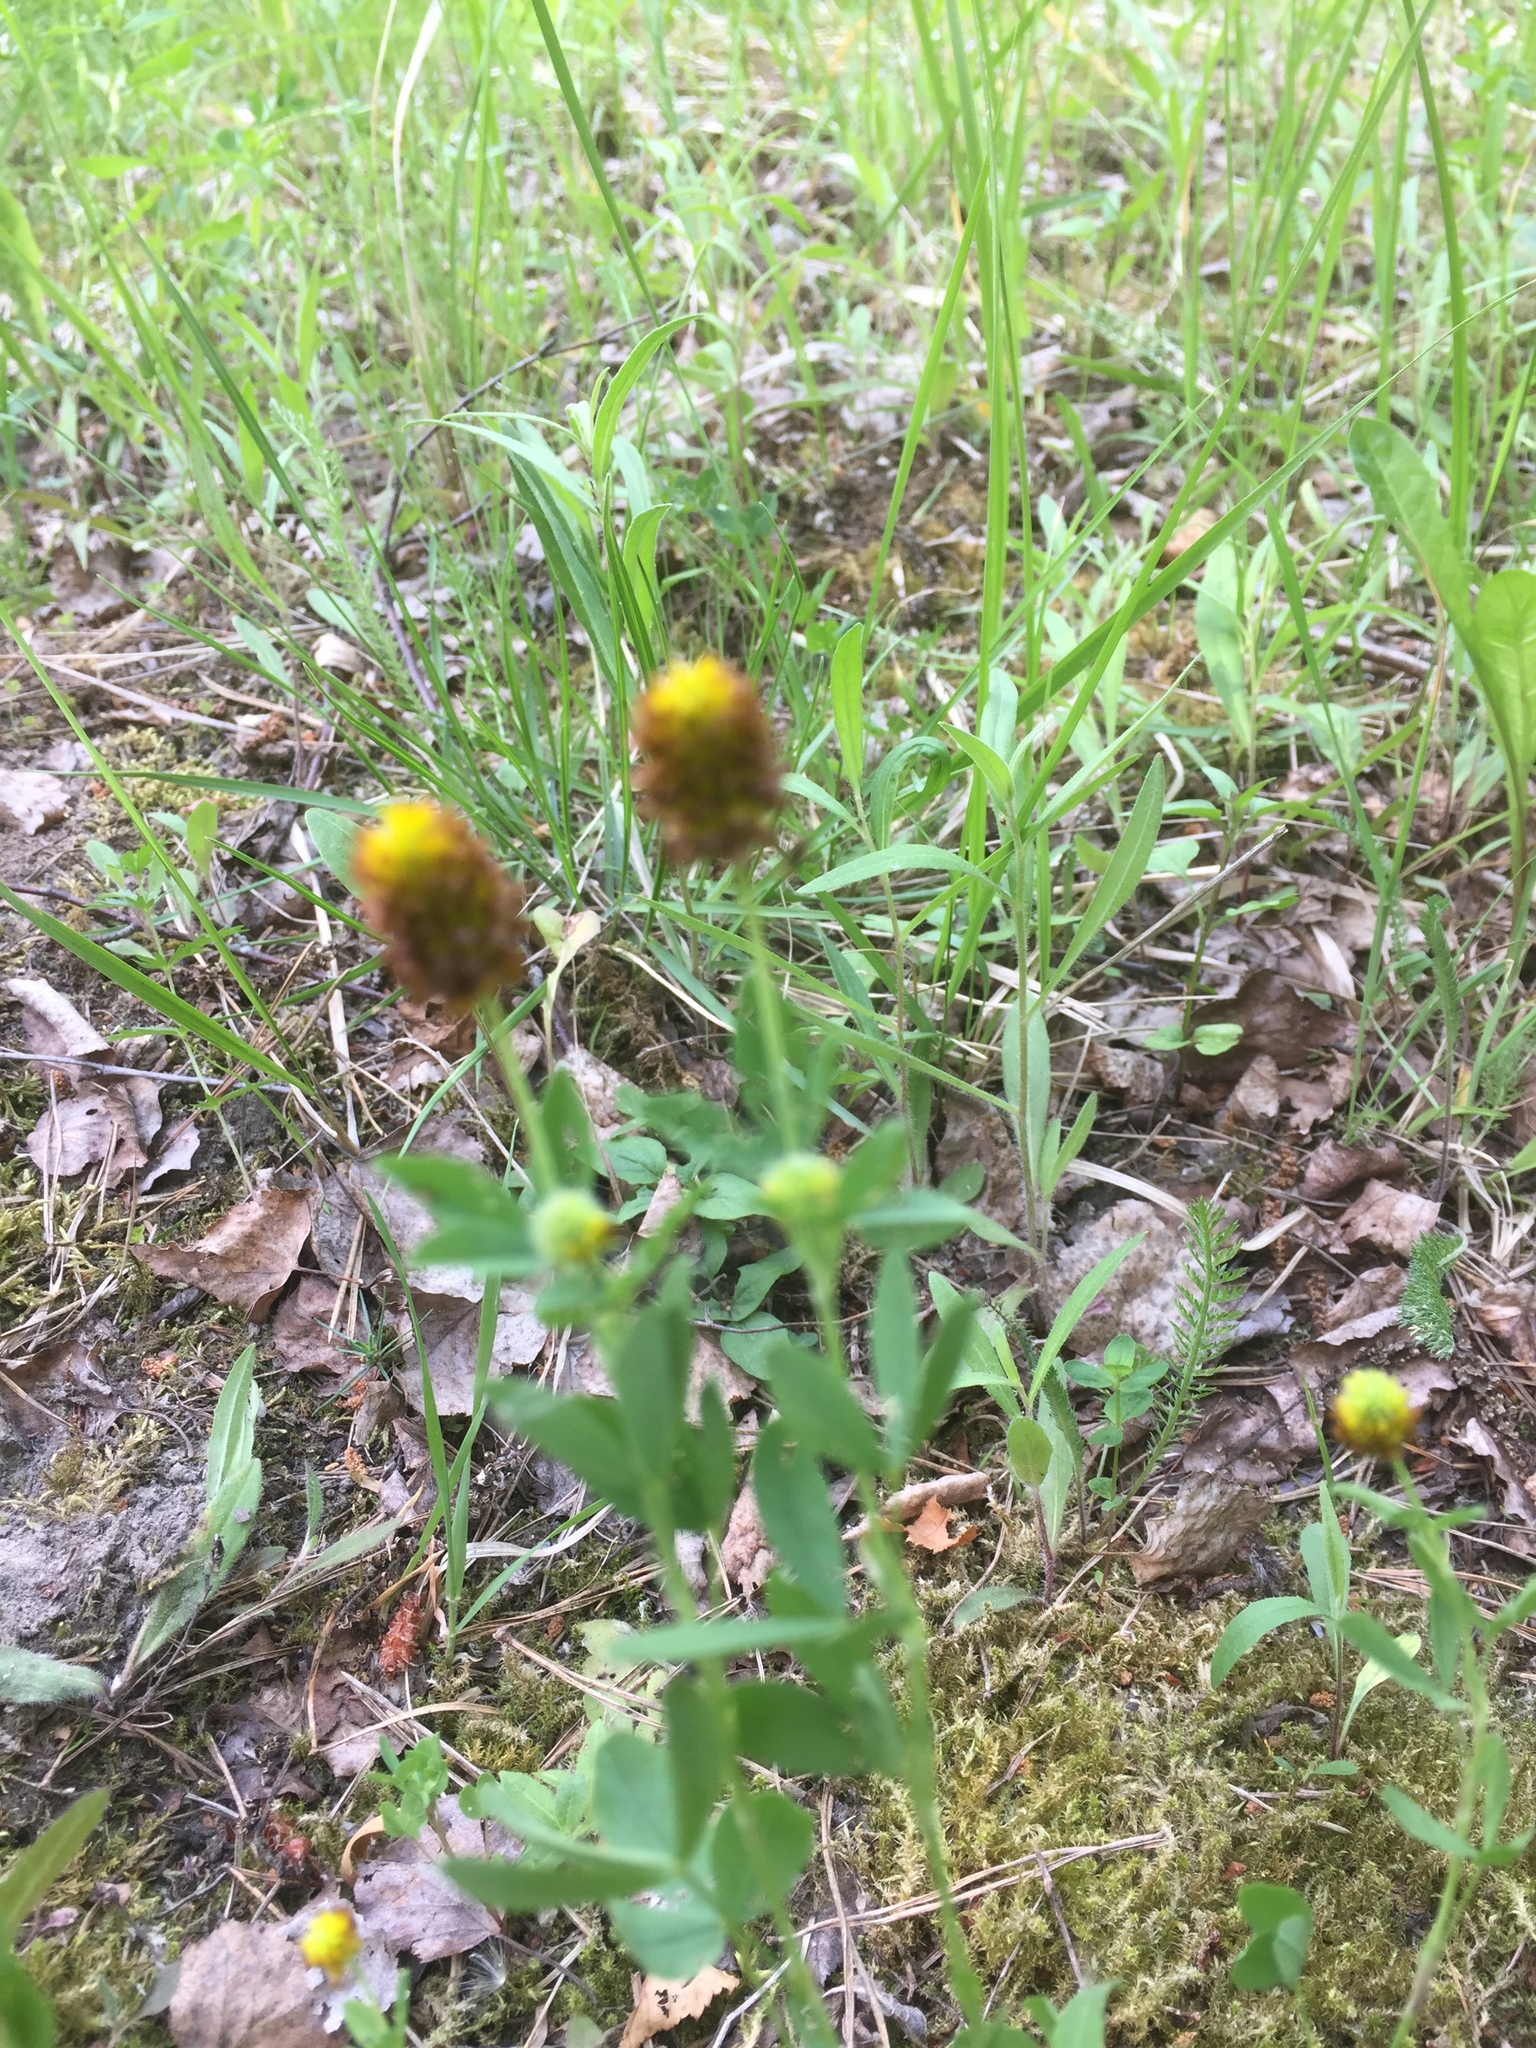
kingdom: Plantae
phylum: Tracheophyta
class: Magnoliopsida
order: Fabales
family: Fabaceae
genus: Trifolium
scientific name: Trifolium spadiceum
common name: Brown moor clover
